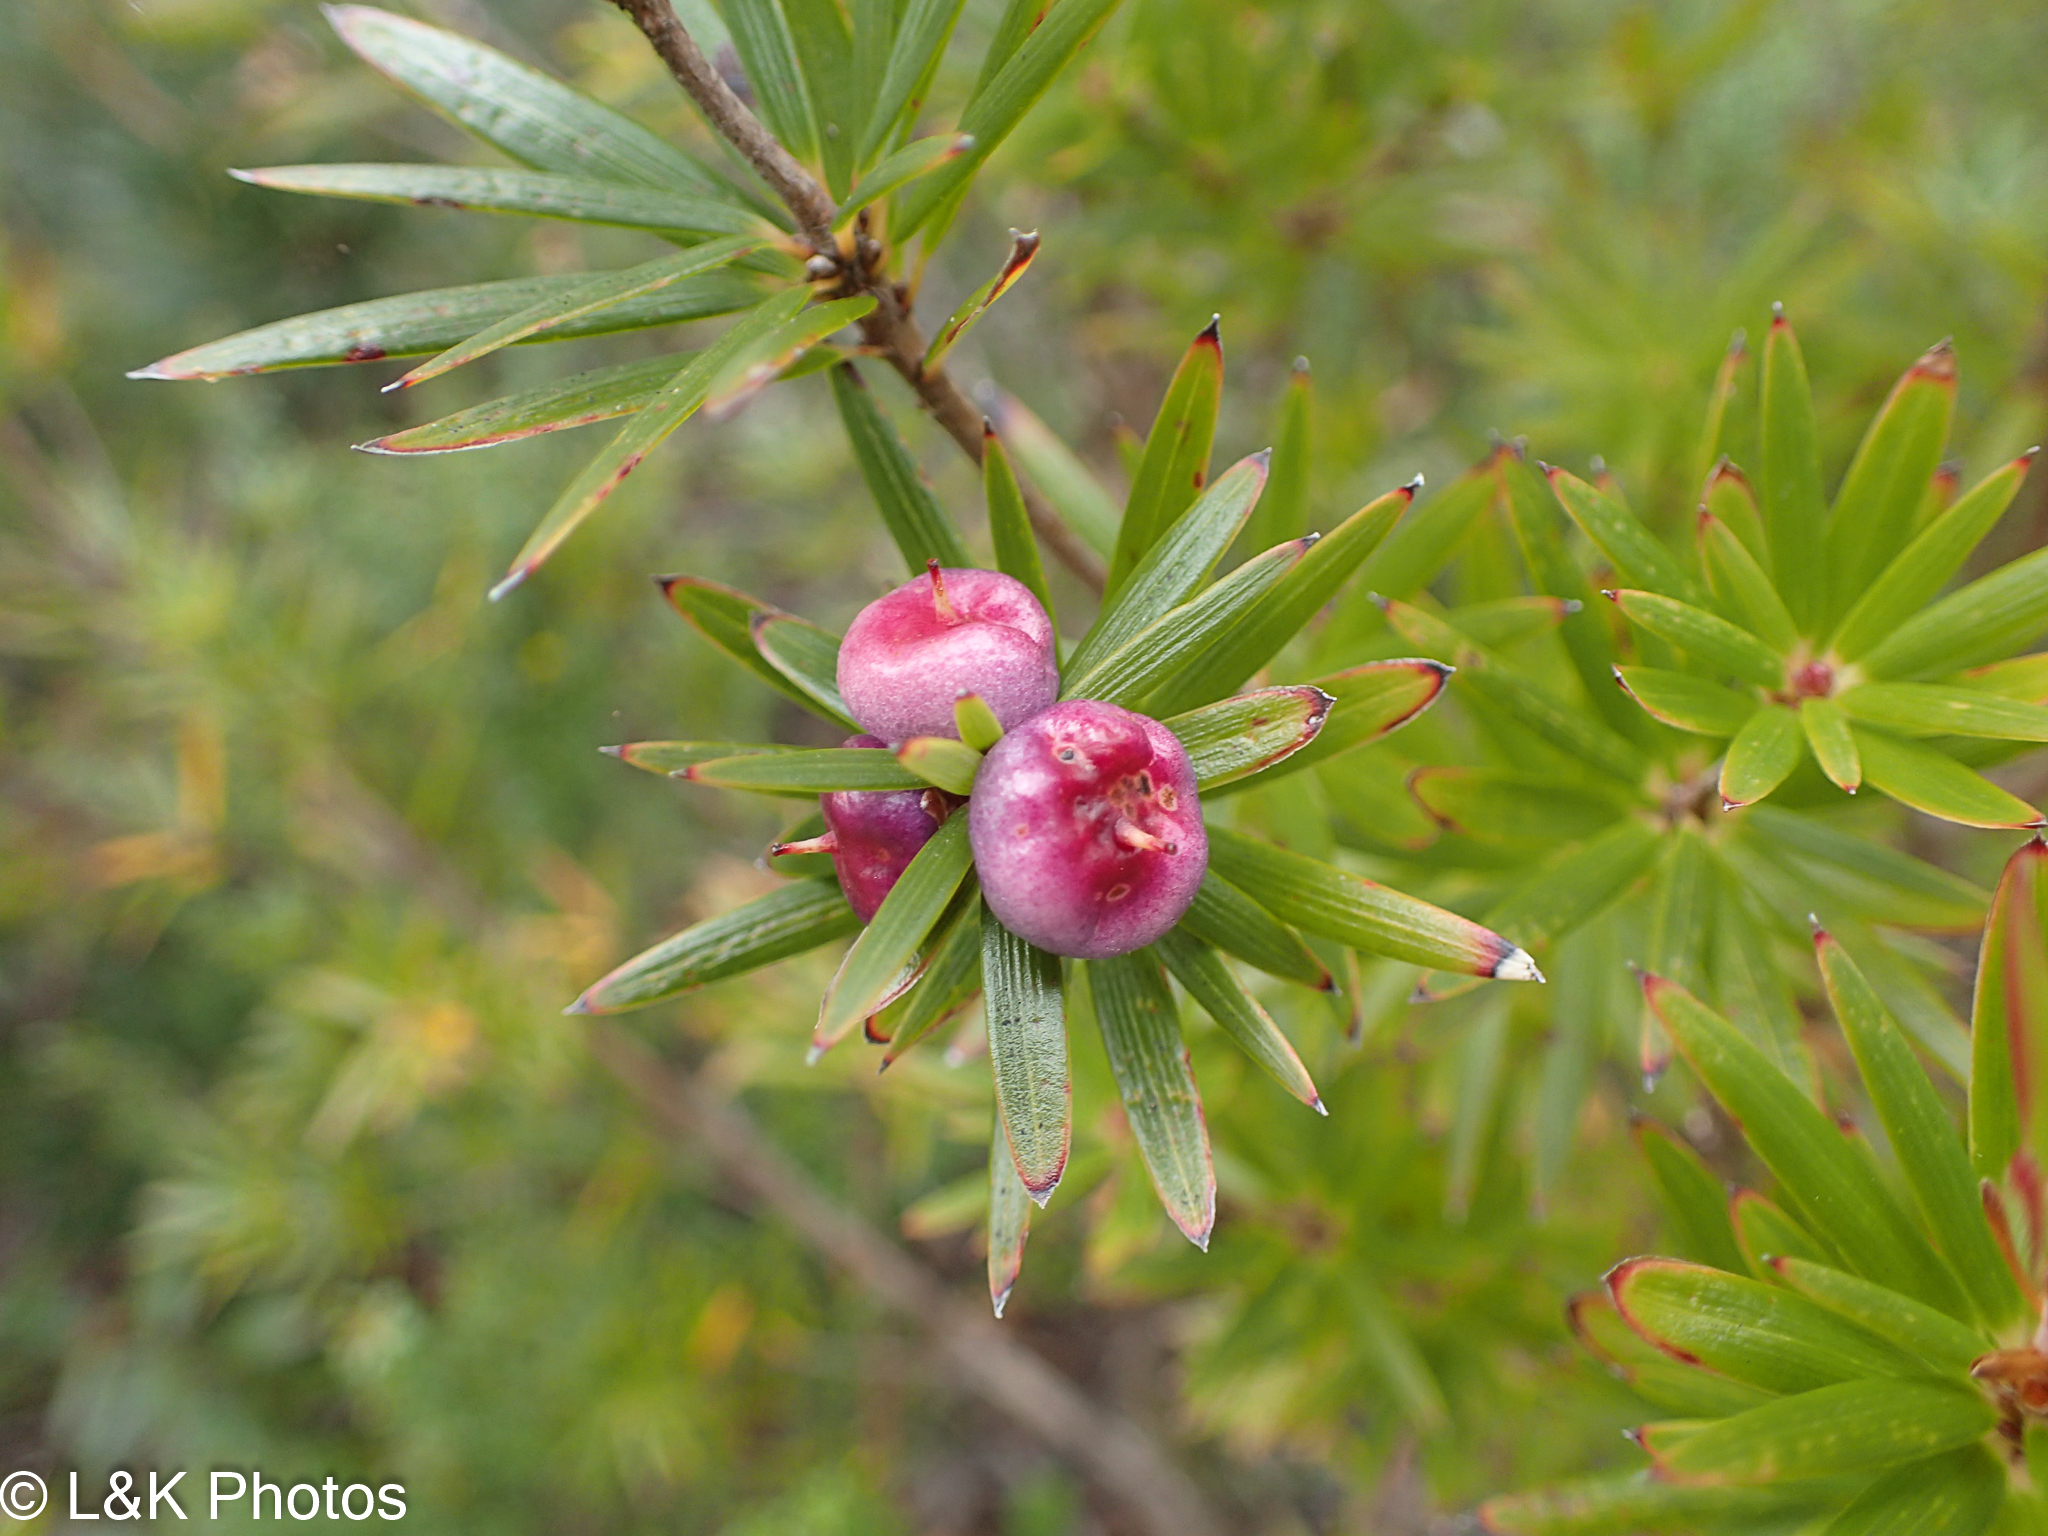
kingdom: Plantae
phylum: Tracheophyta
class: Magnoliopsida
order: Ericales
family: Ericaceae
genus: Cyathodes
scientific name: Cyathodes glauca
